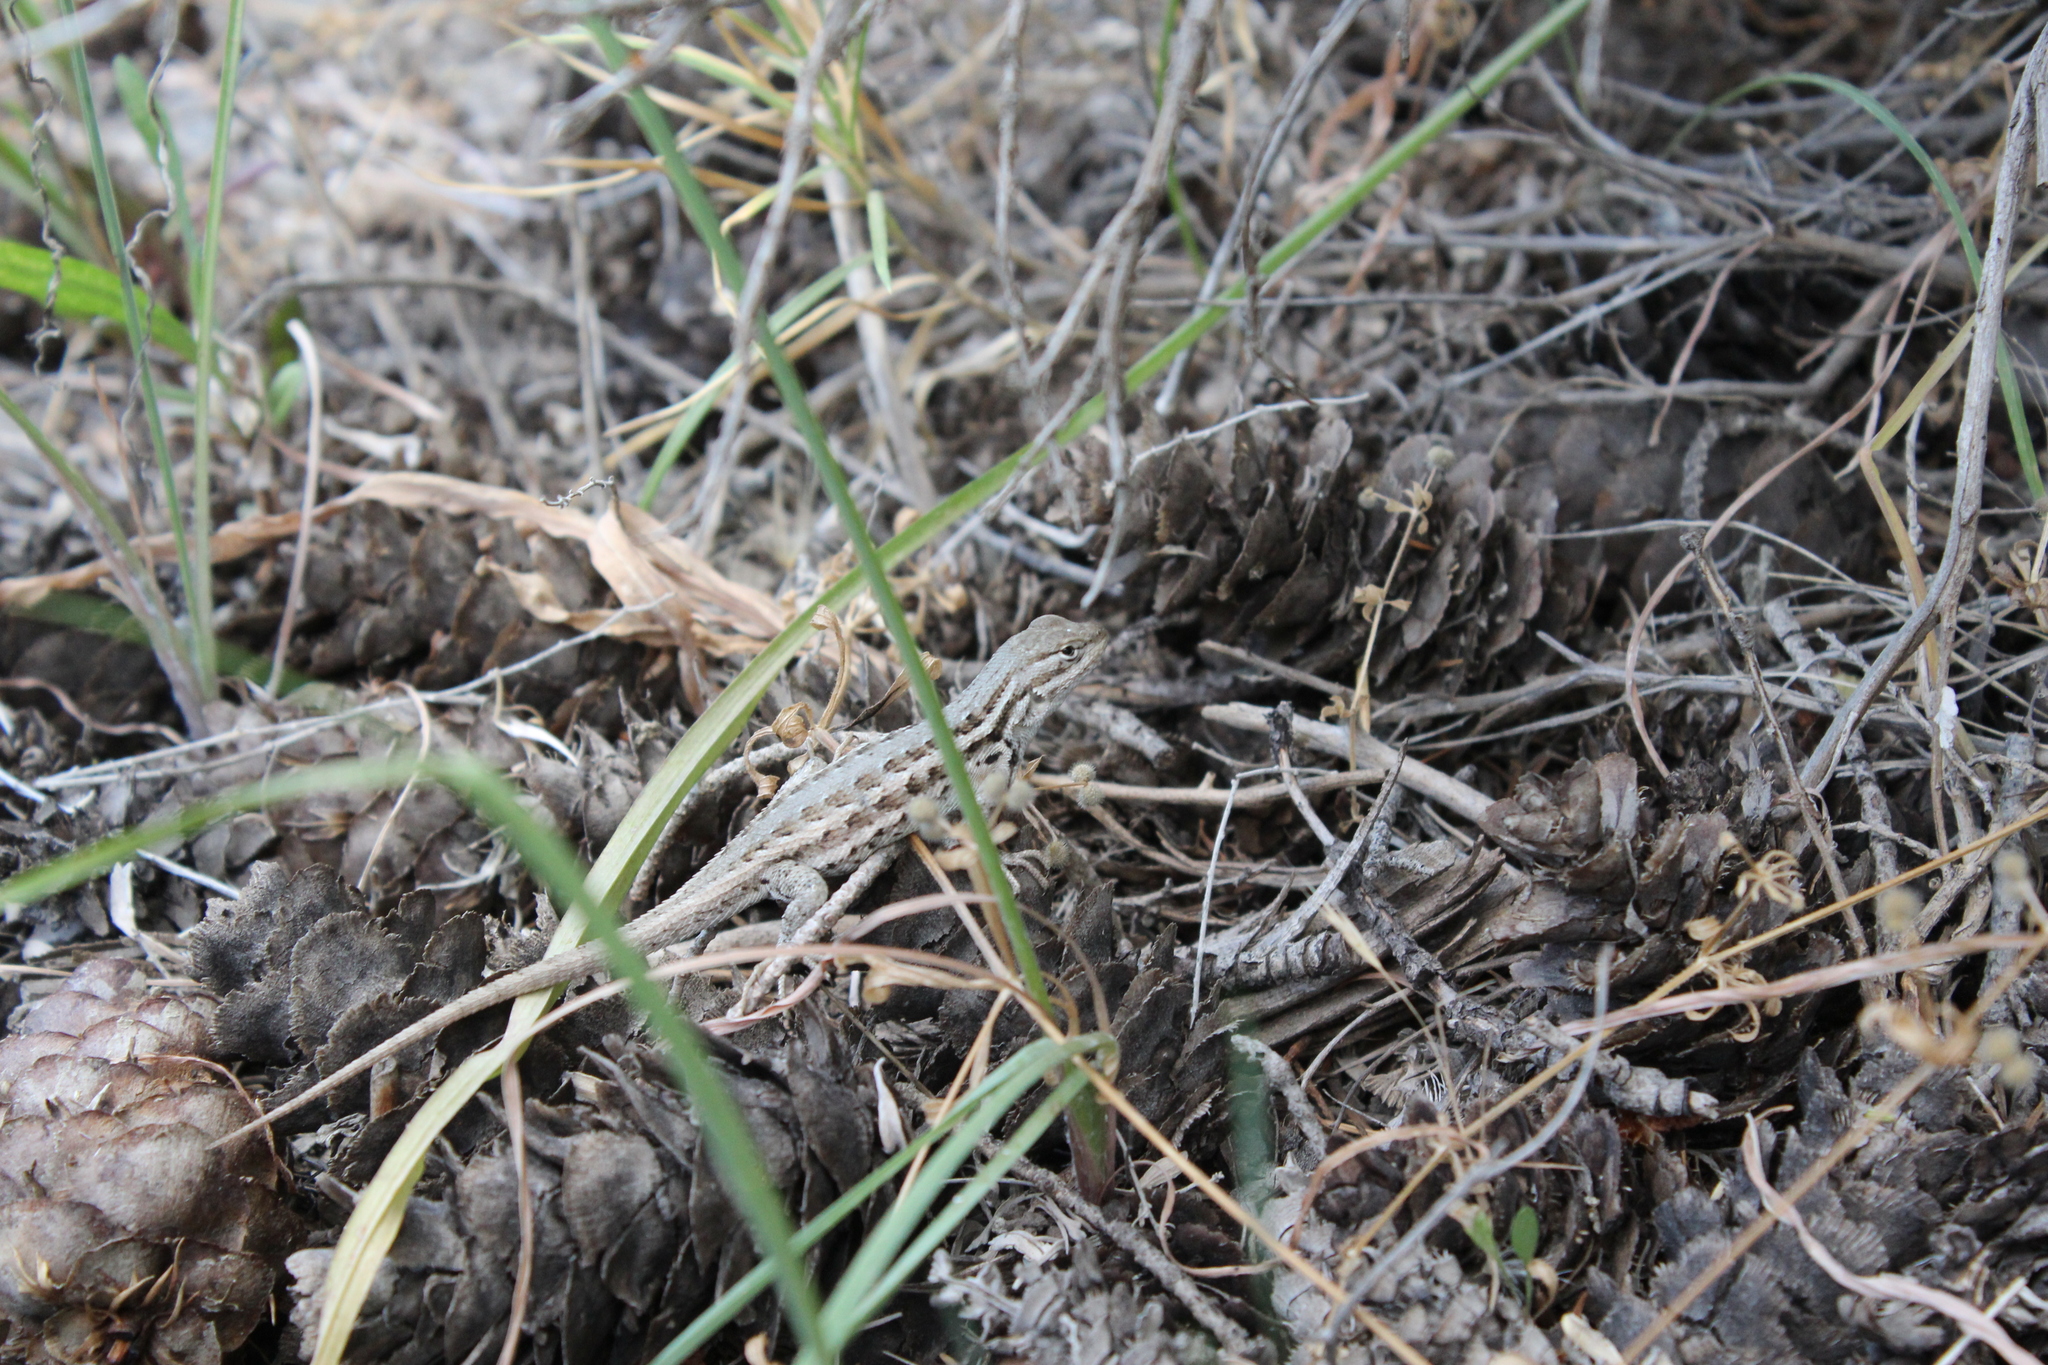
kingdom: Animalia
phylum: Chordata
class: Squamata
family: Phrynosomatidae
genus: Sceloporus
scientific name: Sceloporus graciosus
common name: Sagebrush lizard
